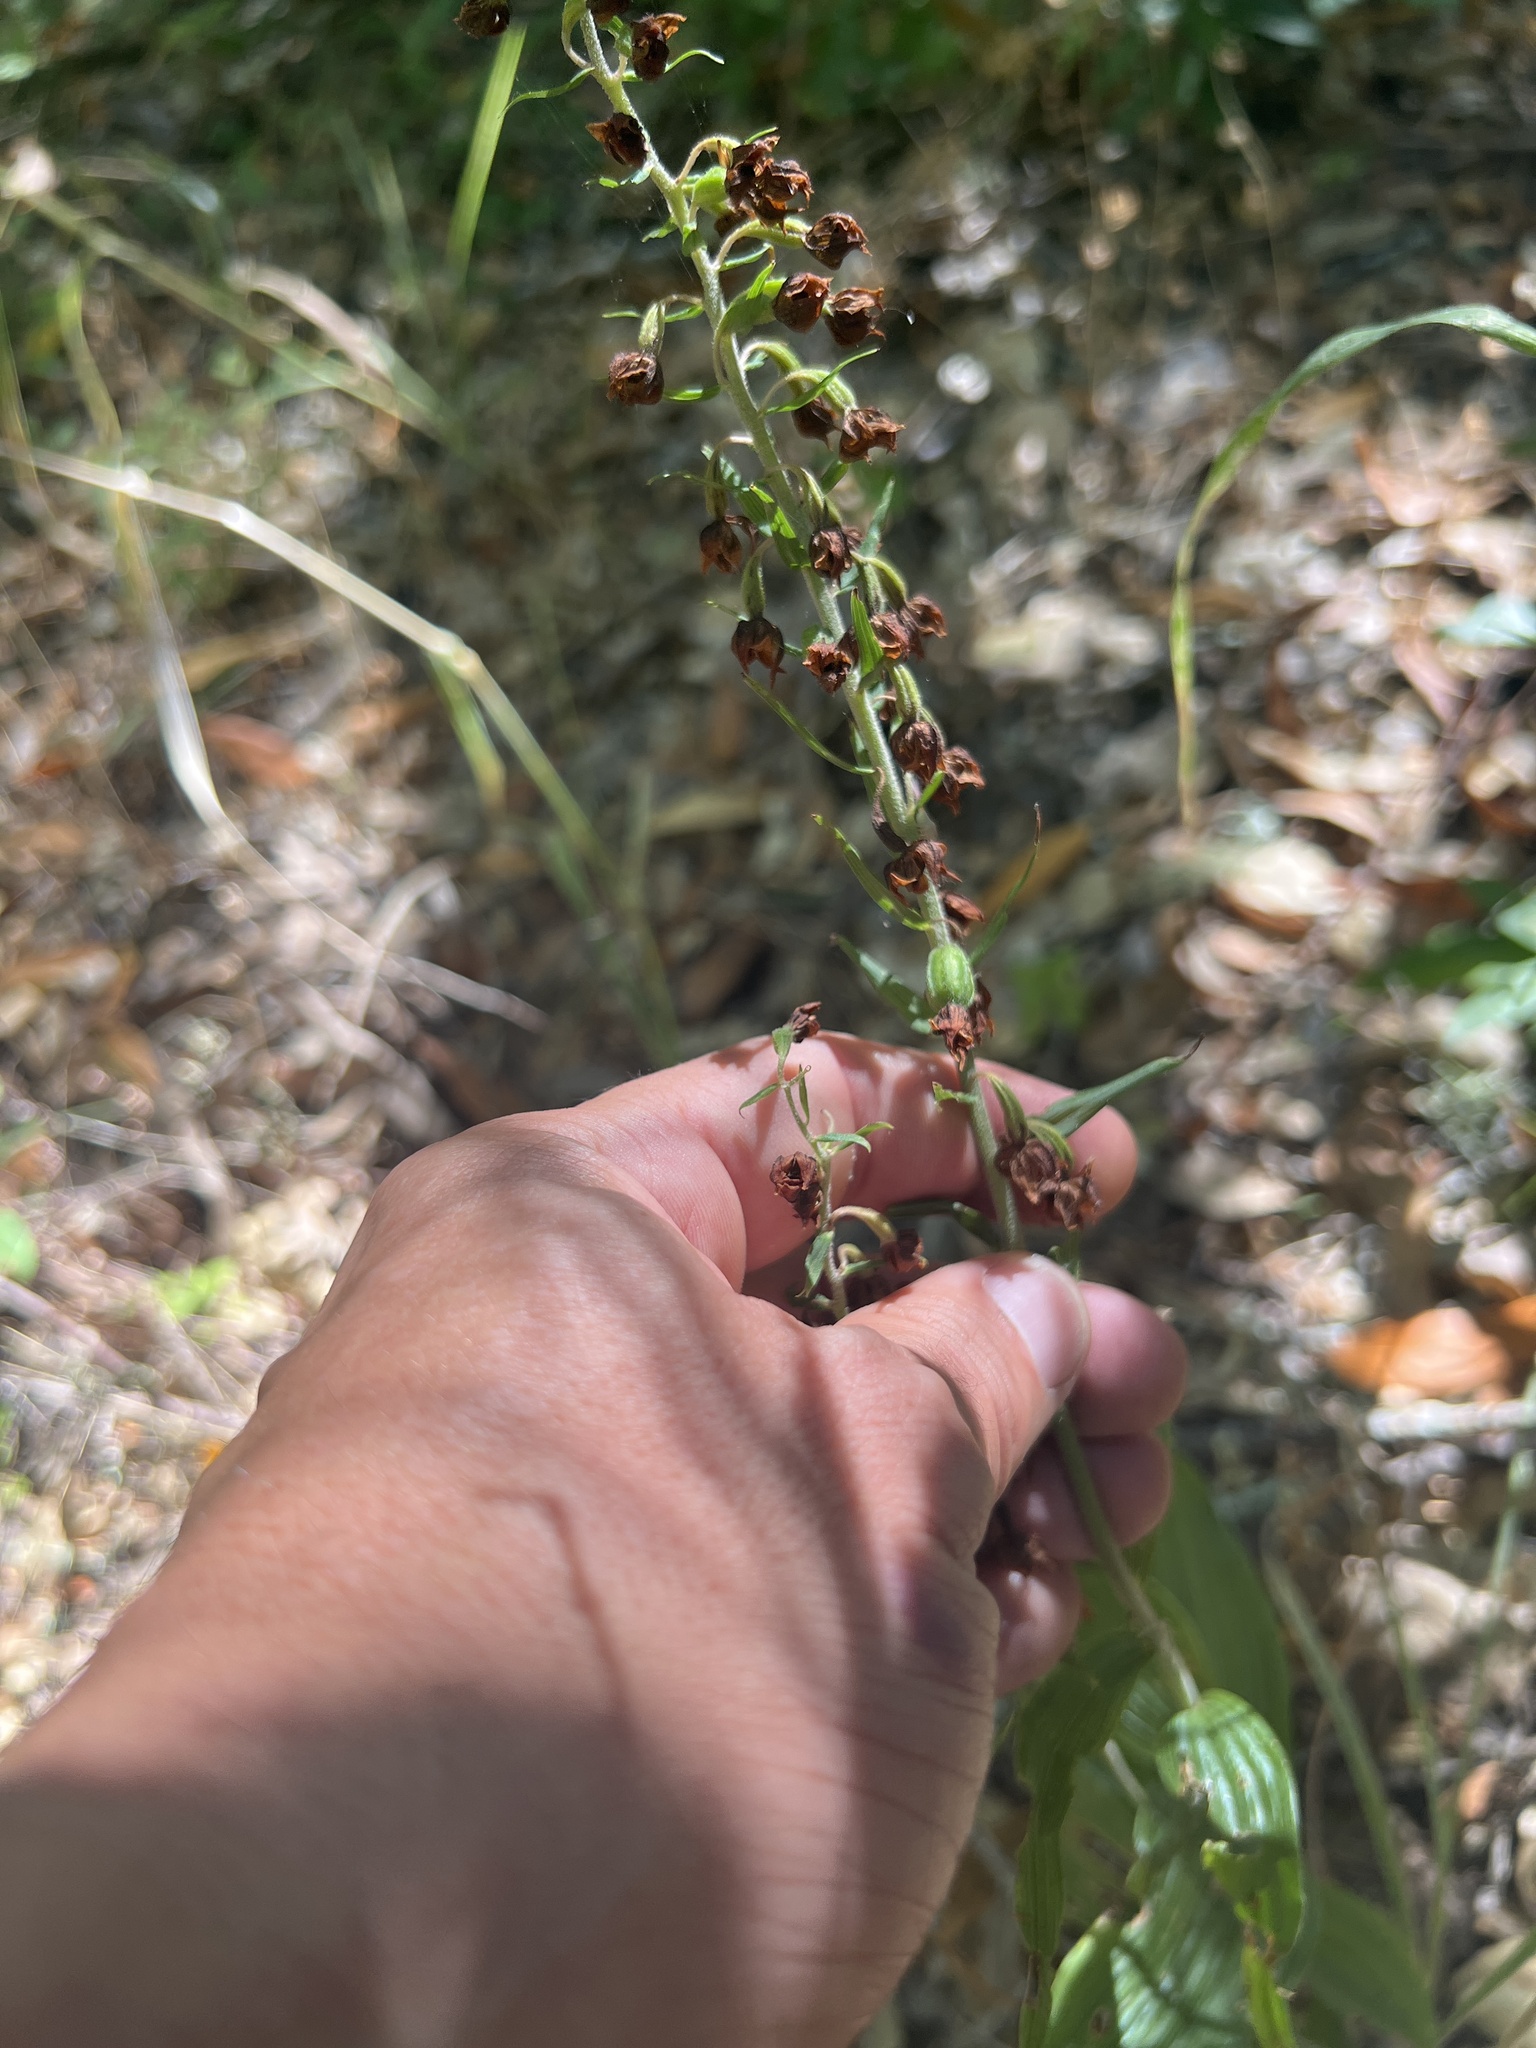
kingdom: Plantae
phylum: Tracheophyta
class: Liliopsida
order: Asparagales
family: Orchidaceae
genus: Epipactis
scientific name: Epipactis helleborine
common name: Broad-leaved helleborine
